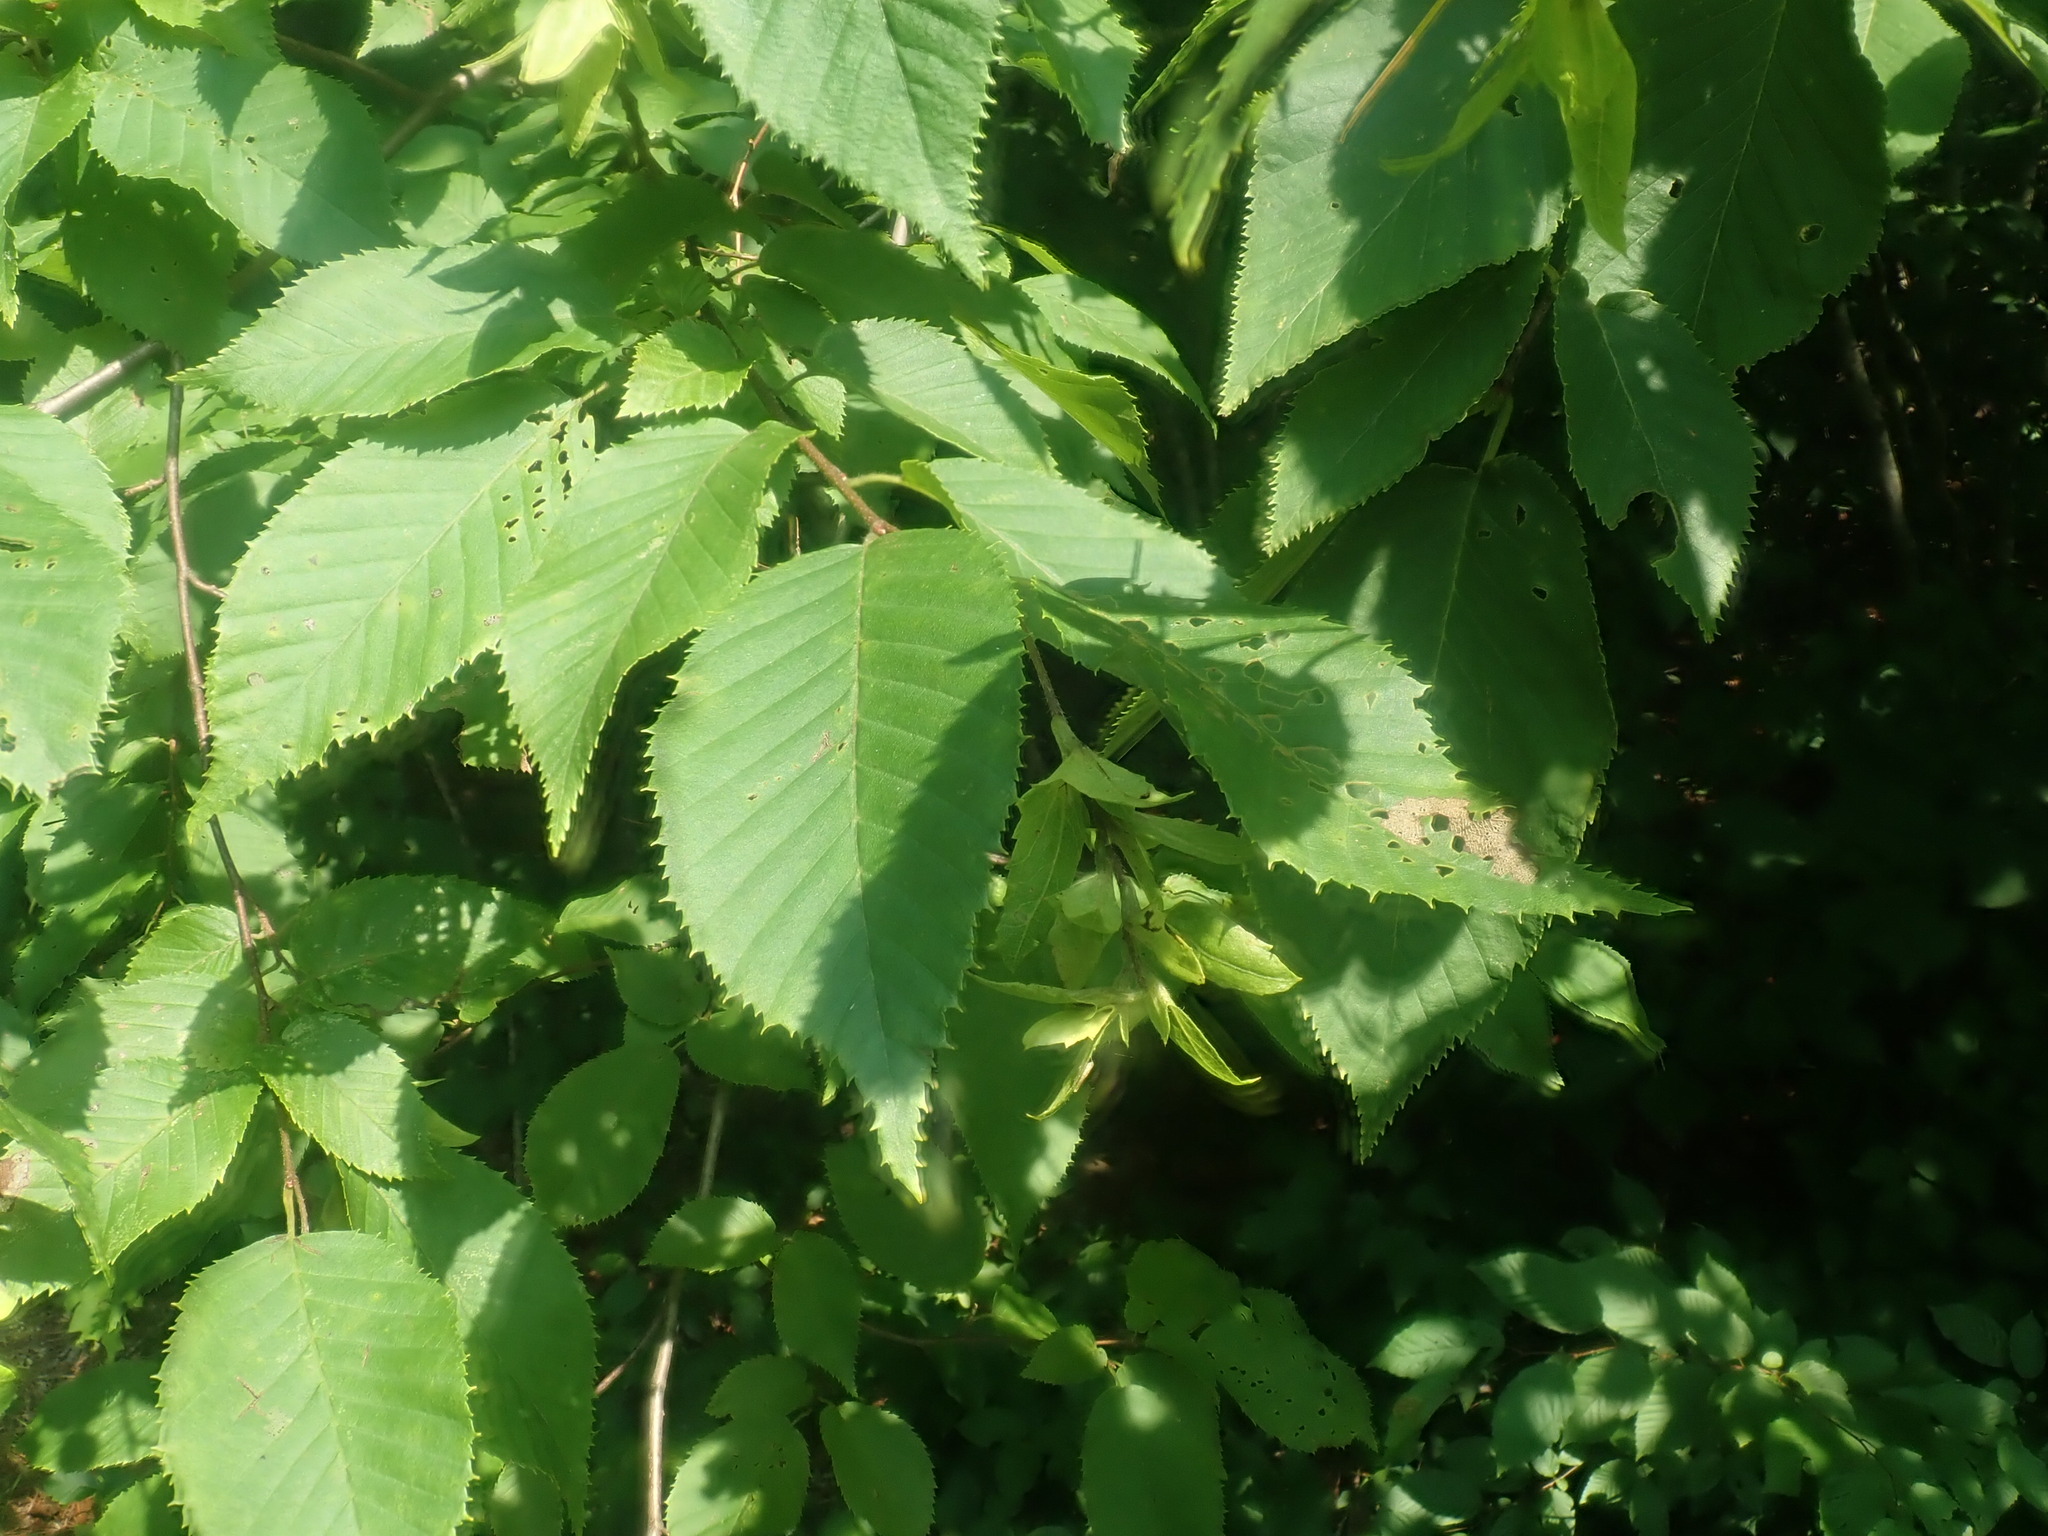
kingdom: Plantae
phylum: Tracheophyta
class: Magnoliopsida
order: Fagales
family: Betulaceae
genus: Carpinus
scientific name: Carpinus caroliniana
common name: American hornbeam
